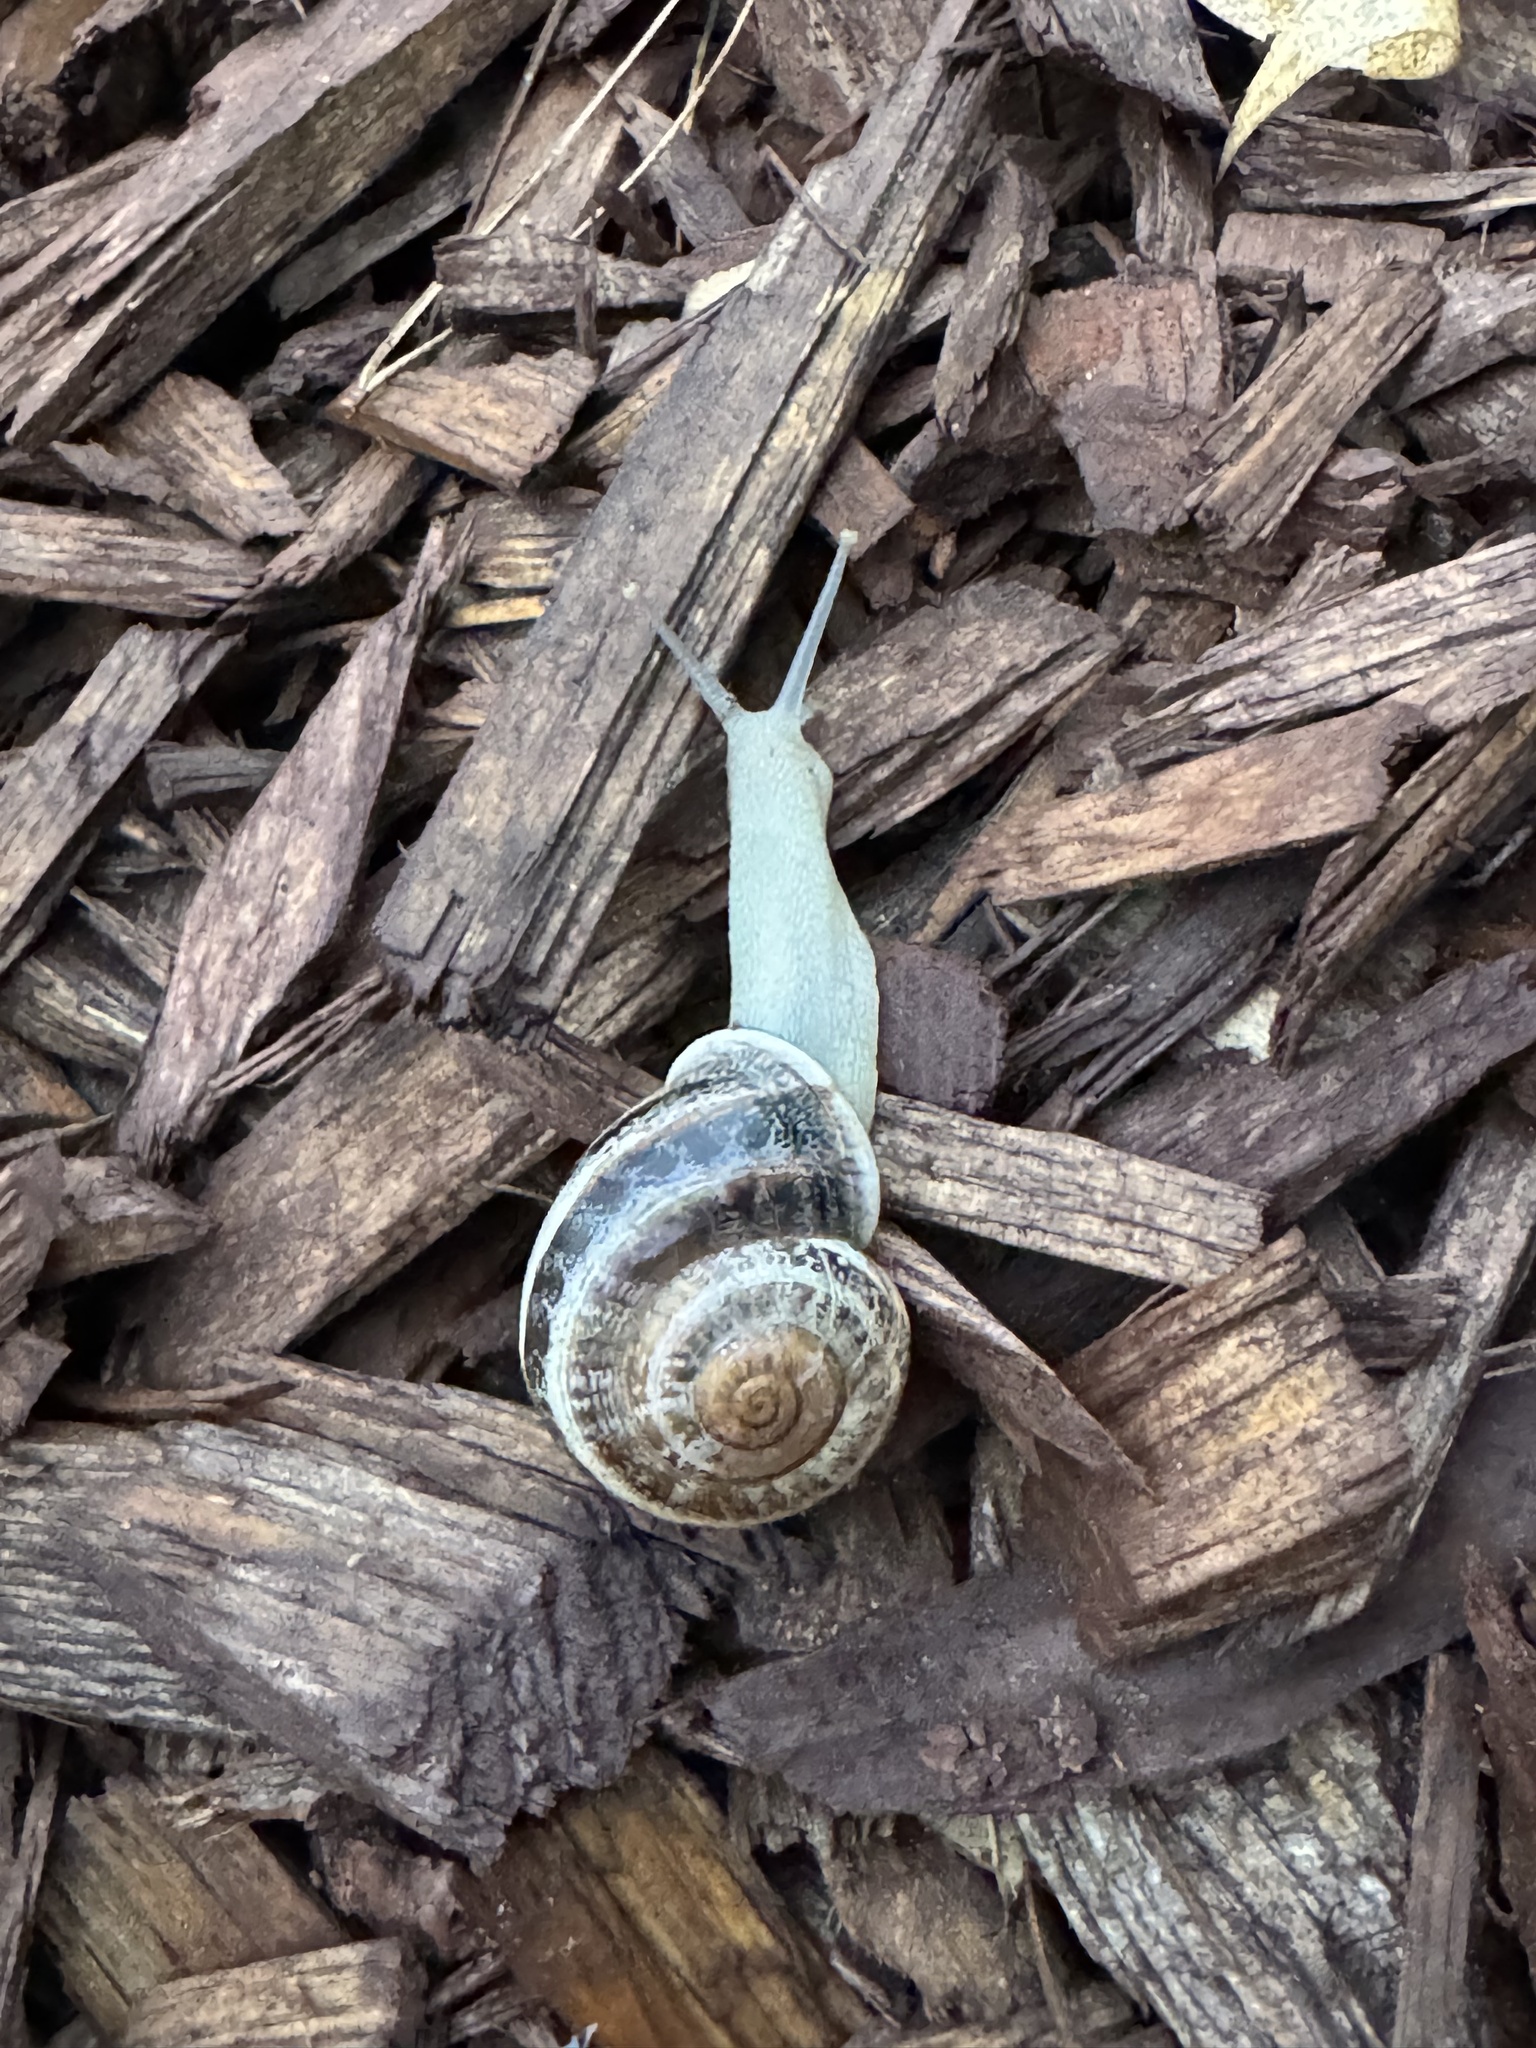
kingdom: Animalia
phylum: Mollusca
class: Gastropoda
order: Stylommatophora
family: Helicidae
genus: Otala
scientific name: Otala lactea
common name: Milk snail
